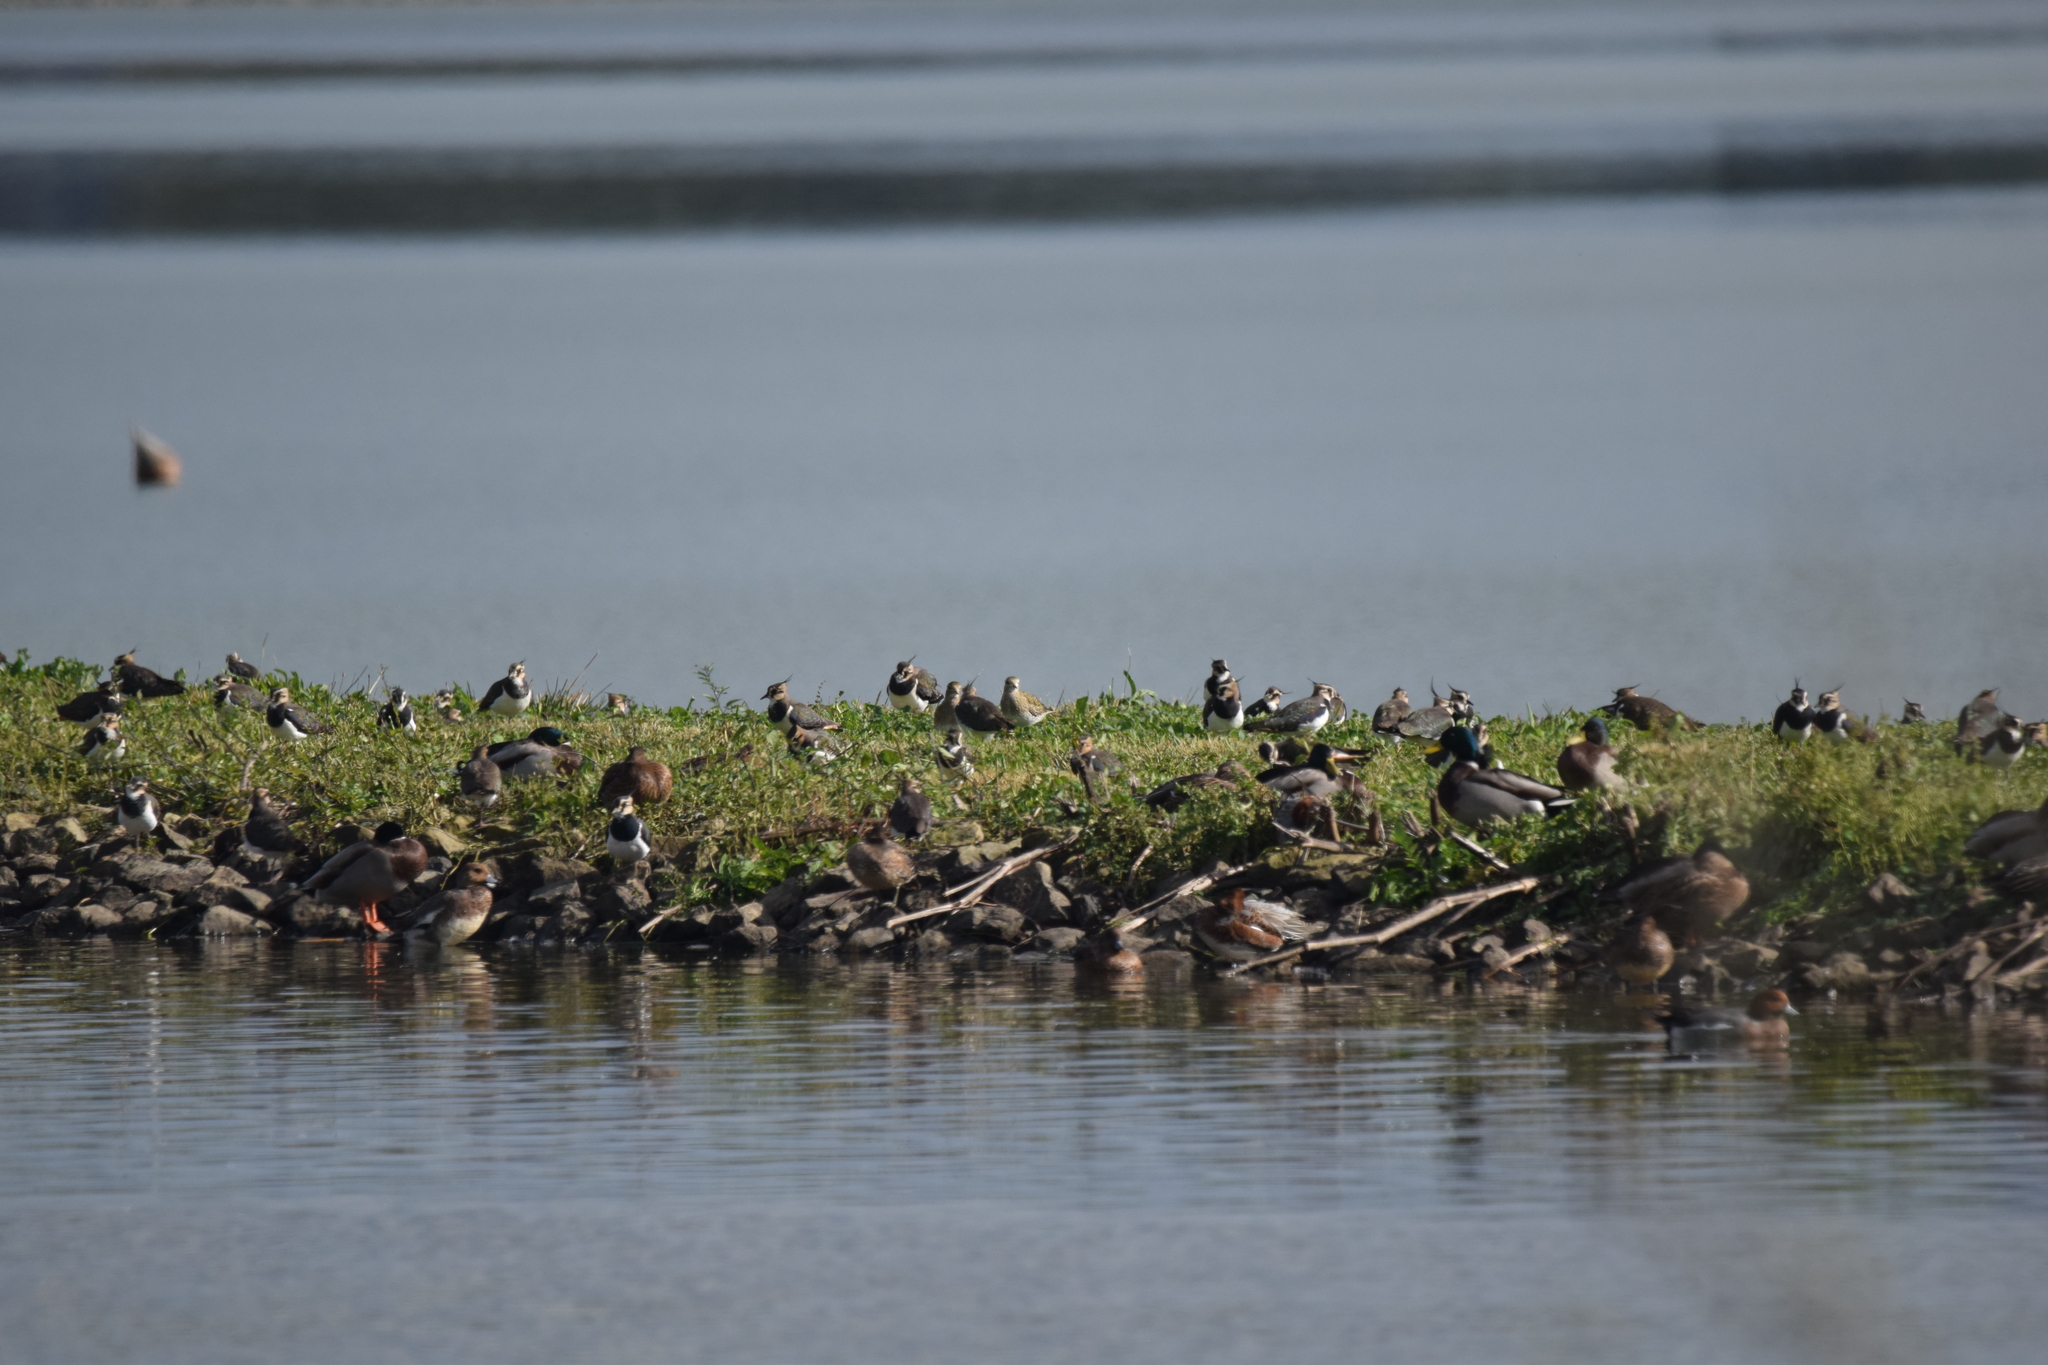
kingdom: Animalia
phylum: Chordata
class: Aves
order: Anseriformes
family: Anatidae
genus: Mareca
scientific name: Mareca penelope
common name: Eurasian wigeon
